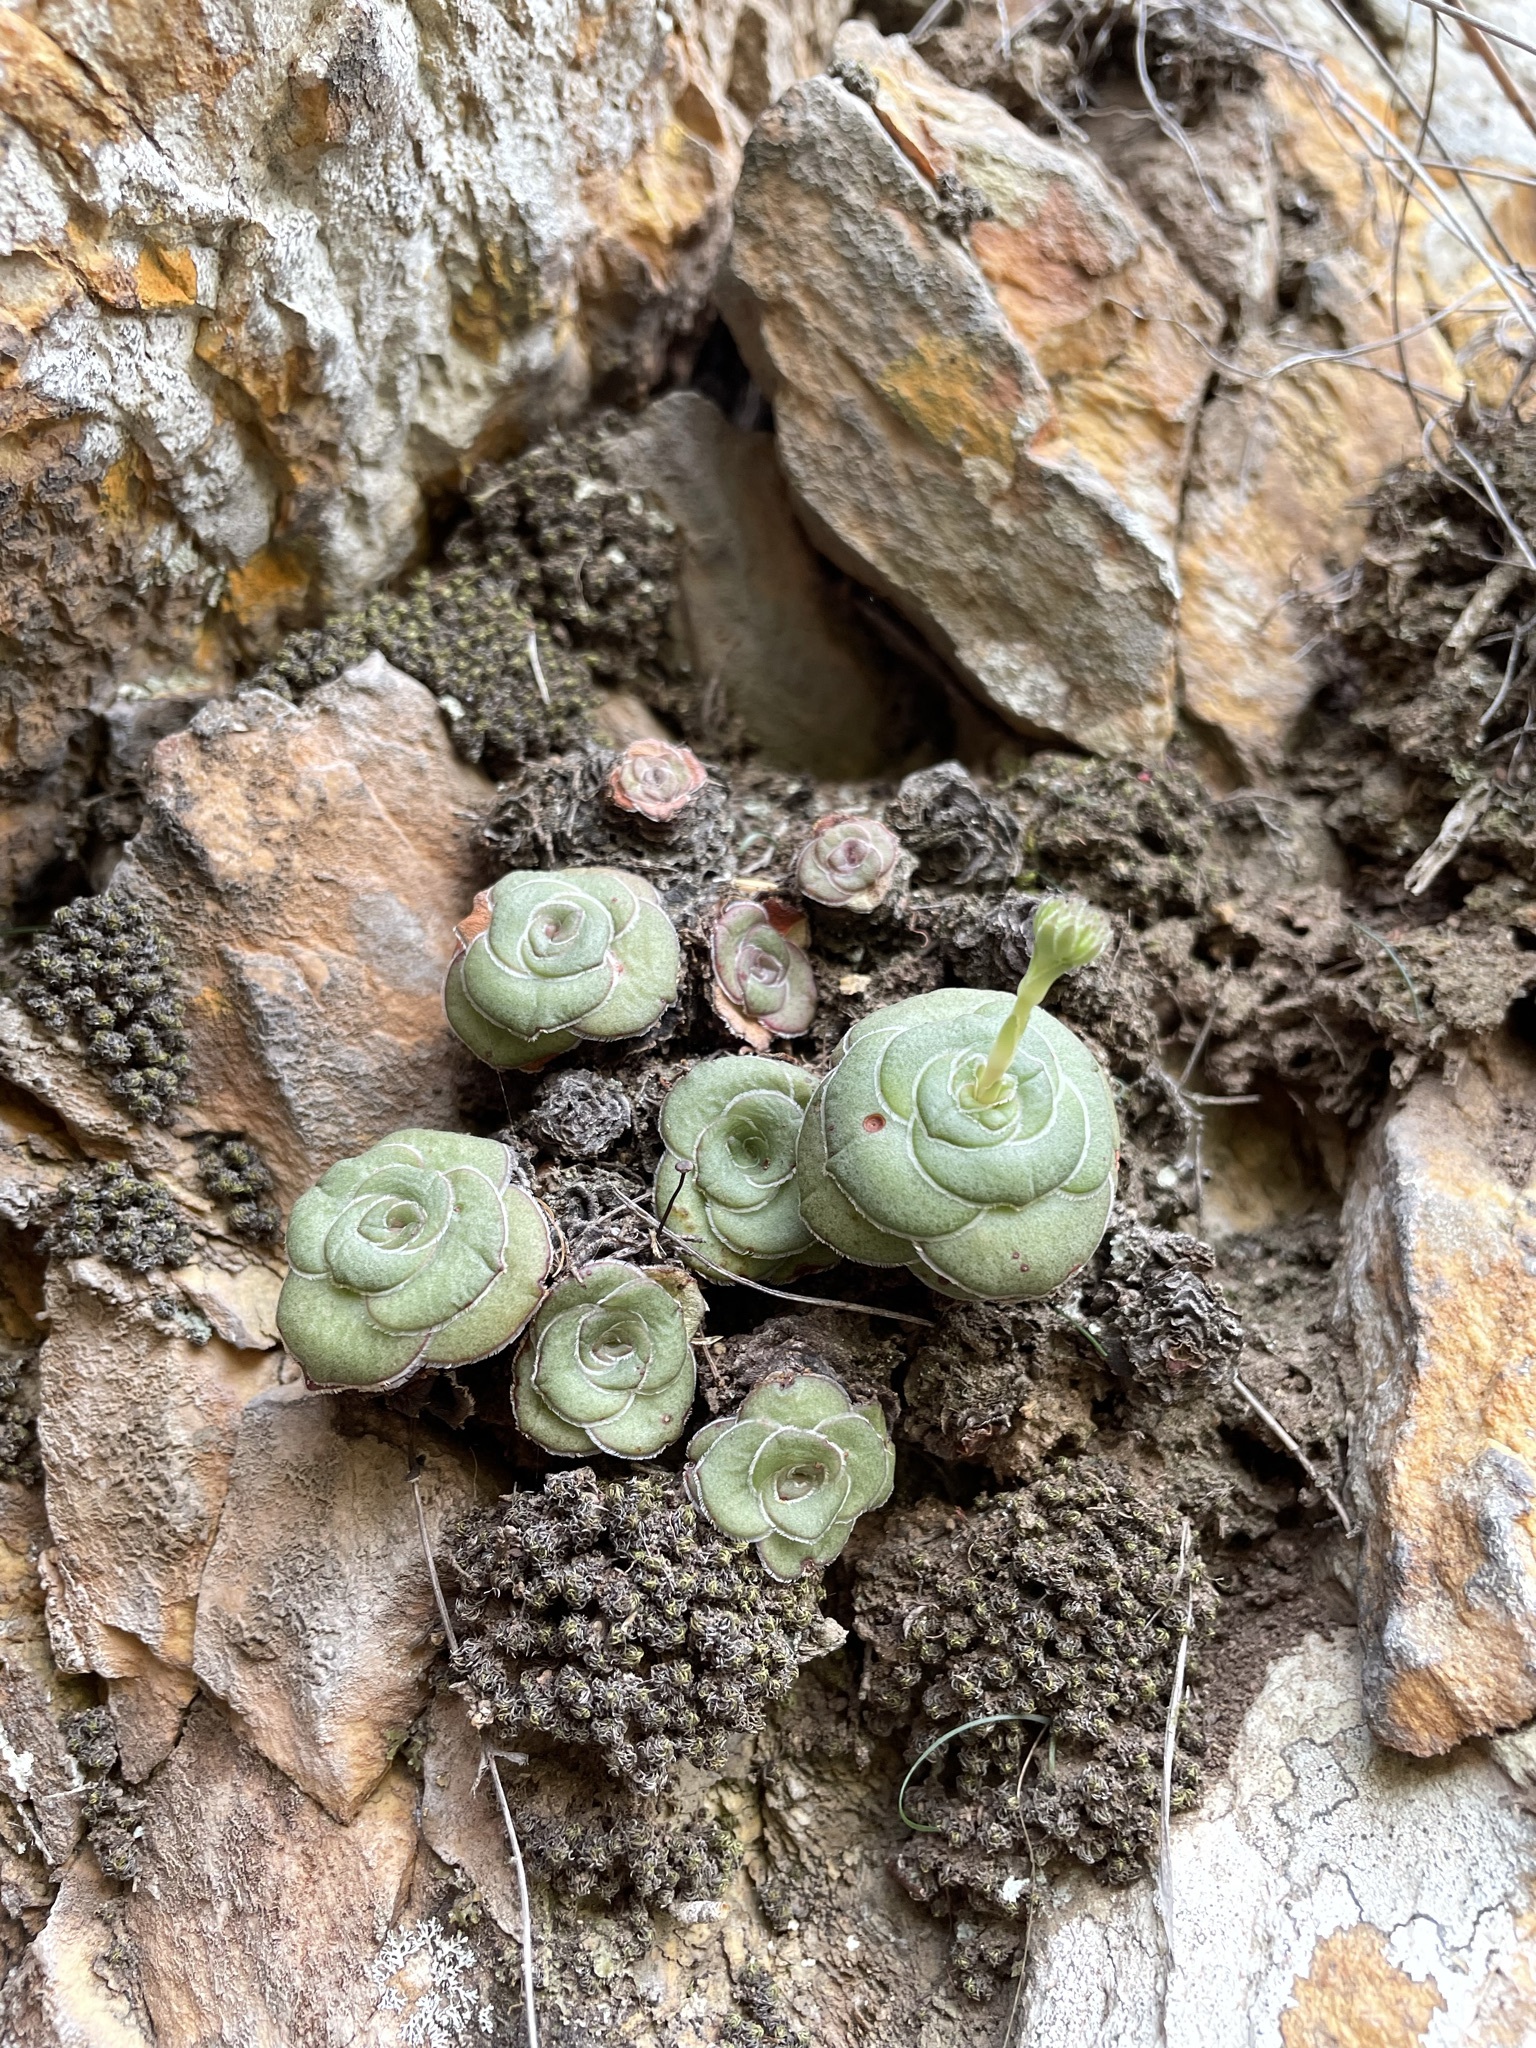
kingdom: Plantae
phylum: Tracheophyta
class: Magnoliopsida
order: Saxifragales
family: Crassulaceae
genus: Crassula
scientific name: Crassula cremnophila
